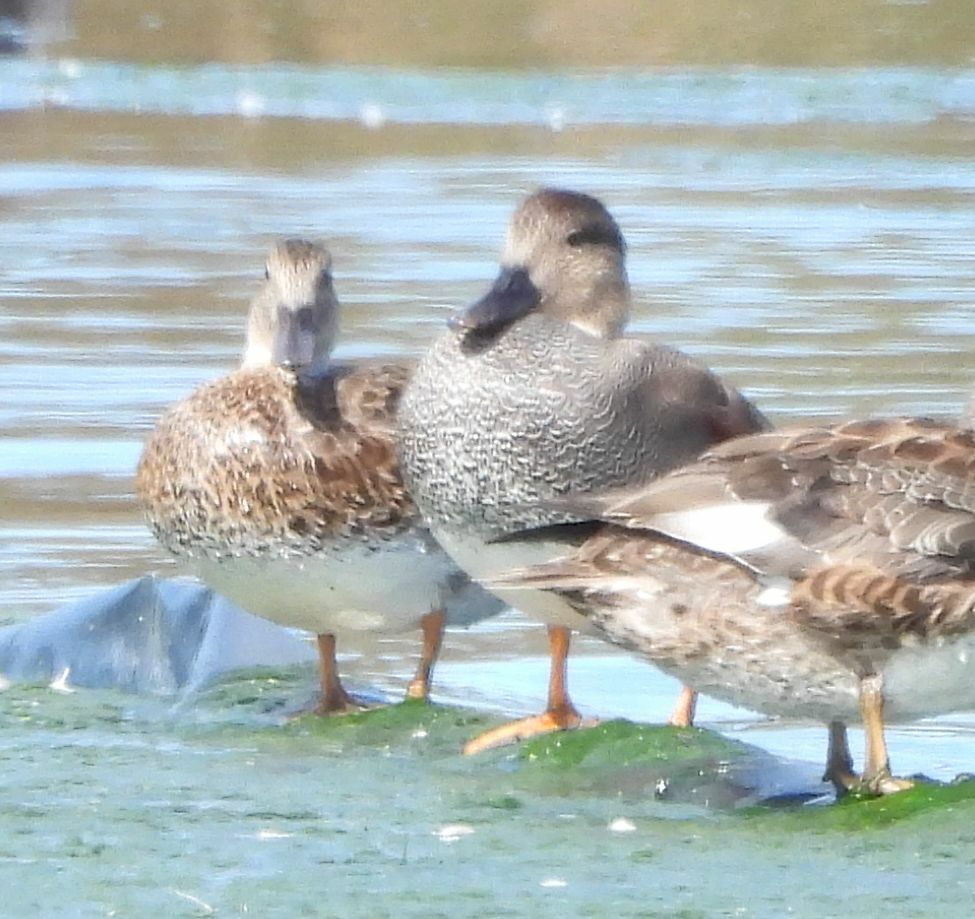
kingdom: Animalia
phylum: Chordata
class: Aves
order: Anseriformes
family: Anatidae
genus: Mareca
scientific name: Mareca strepera
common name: Gadwall
